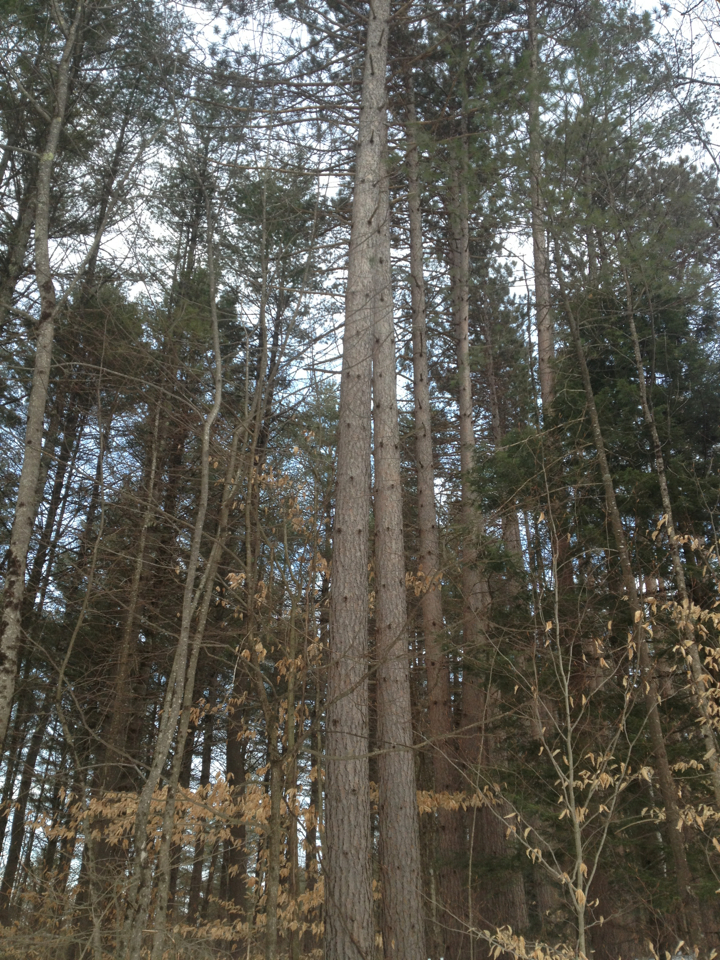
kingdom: Plantae
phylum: Tracheophyta
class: Pinopsida
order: Pinales
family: Pinaceae
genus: Pinus
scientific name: Pinus resinosa
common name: Norway pine
